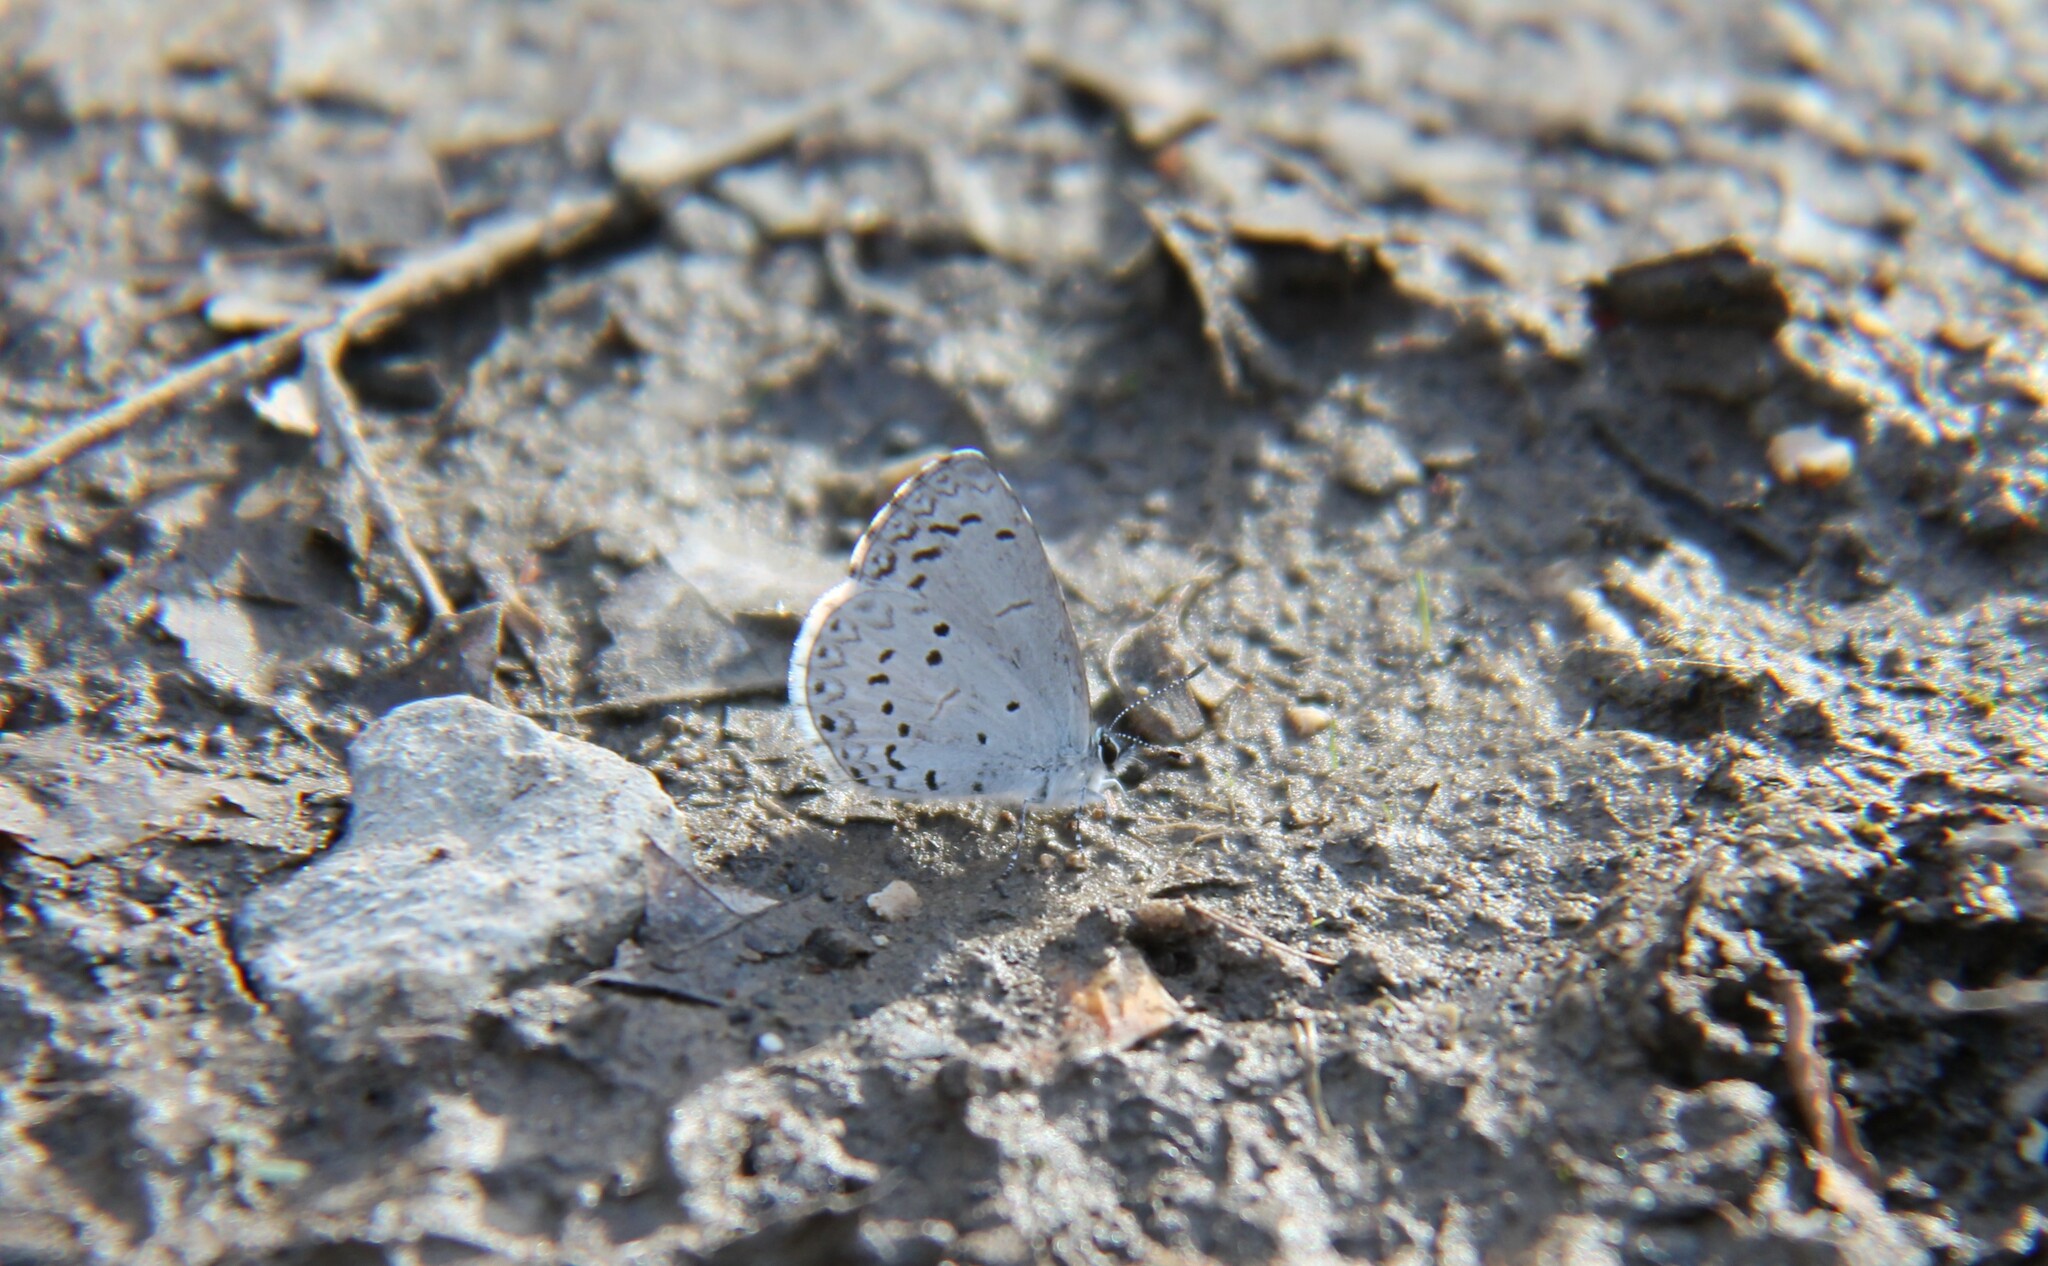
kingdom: Animalia
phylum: Arthropoda
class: Insecta
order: Lepidoptera
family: Lycaenidae
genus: Celastrina
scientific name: Celastrina ladon
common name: Spring azure
